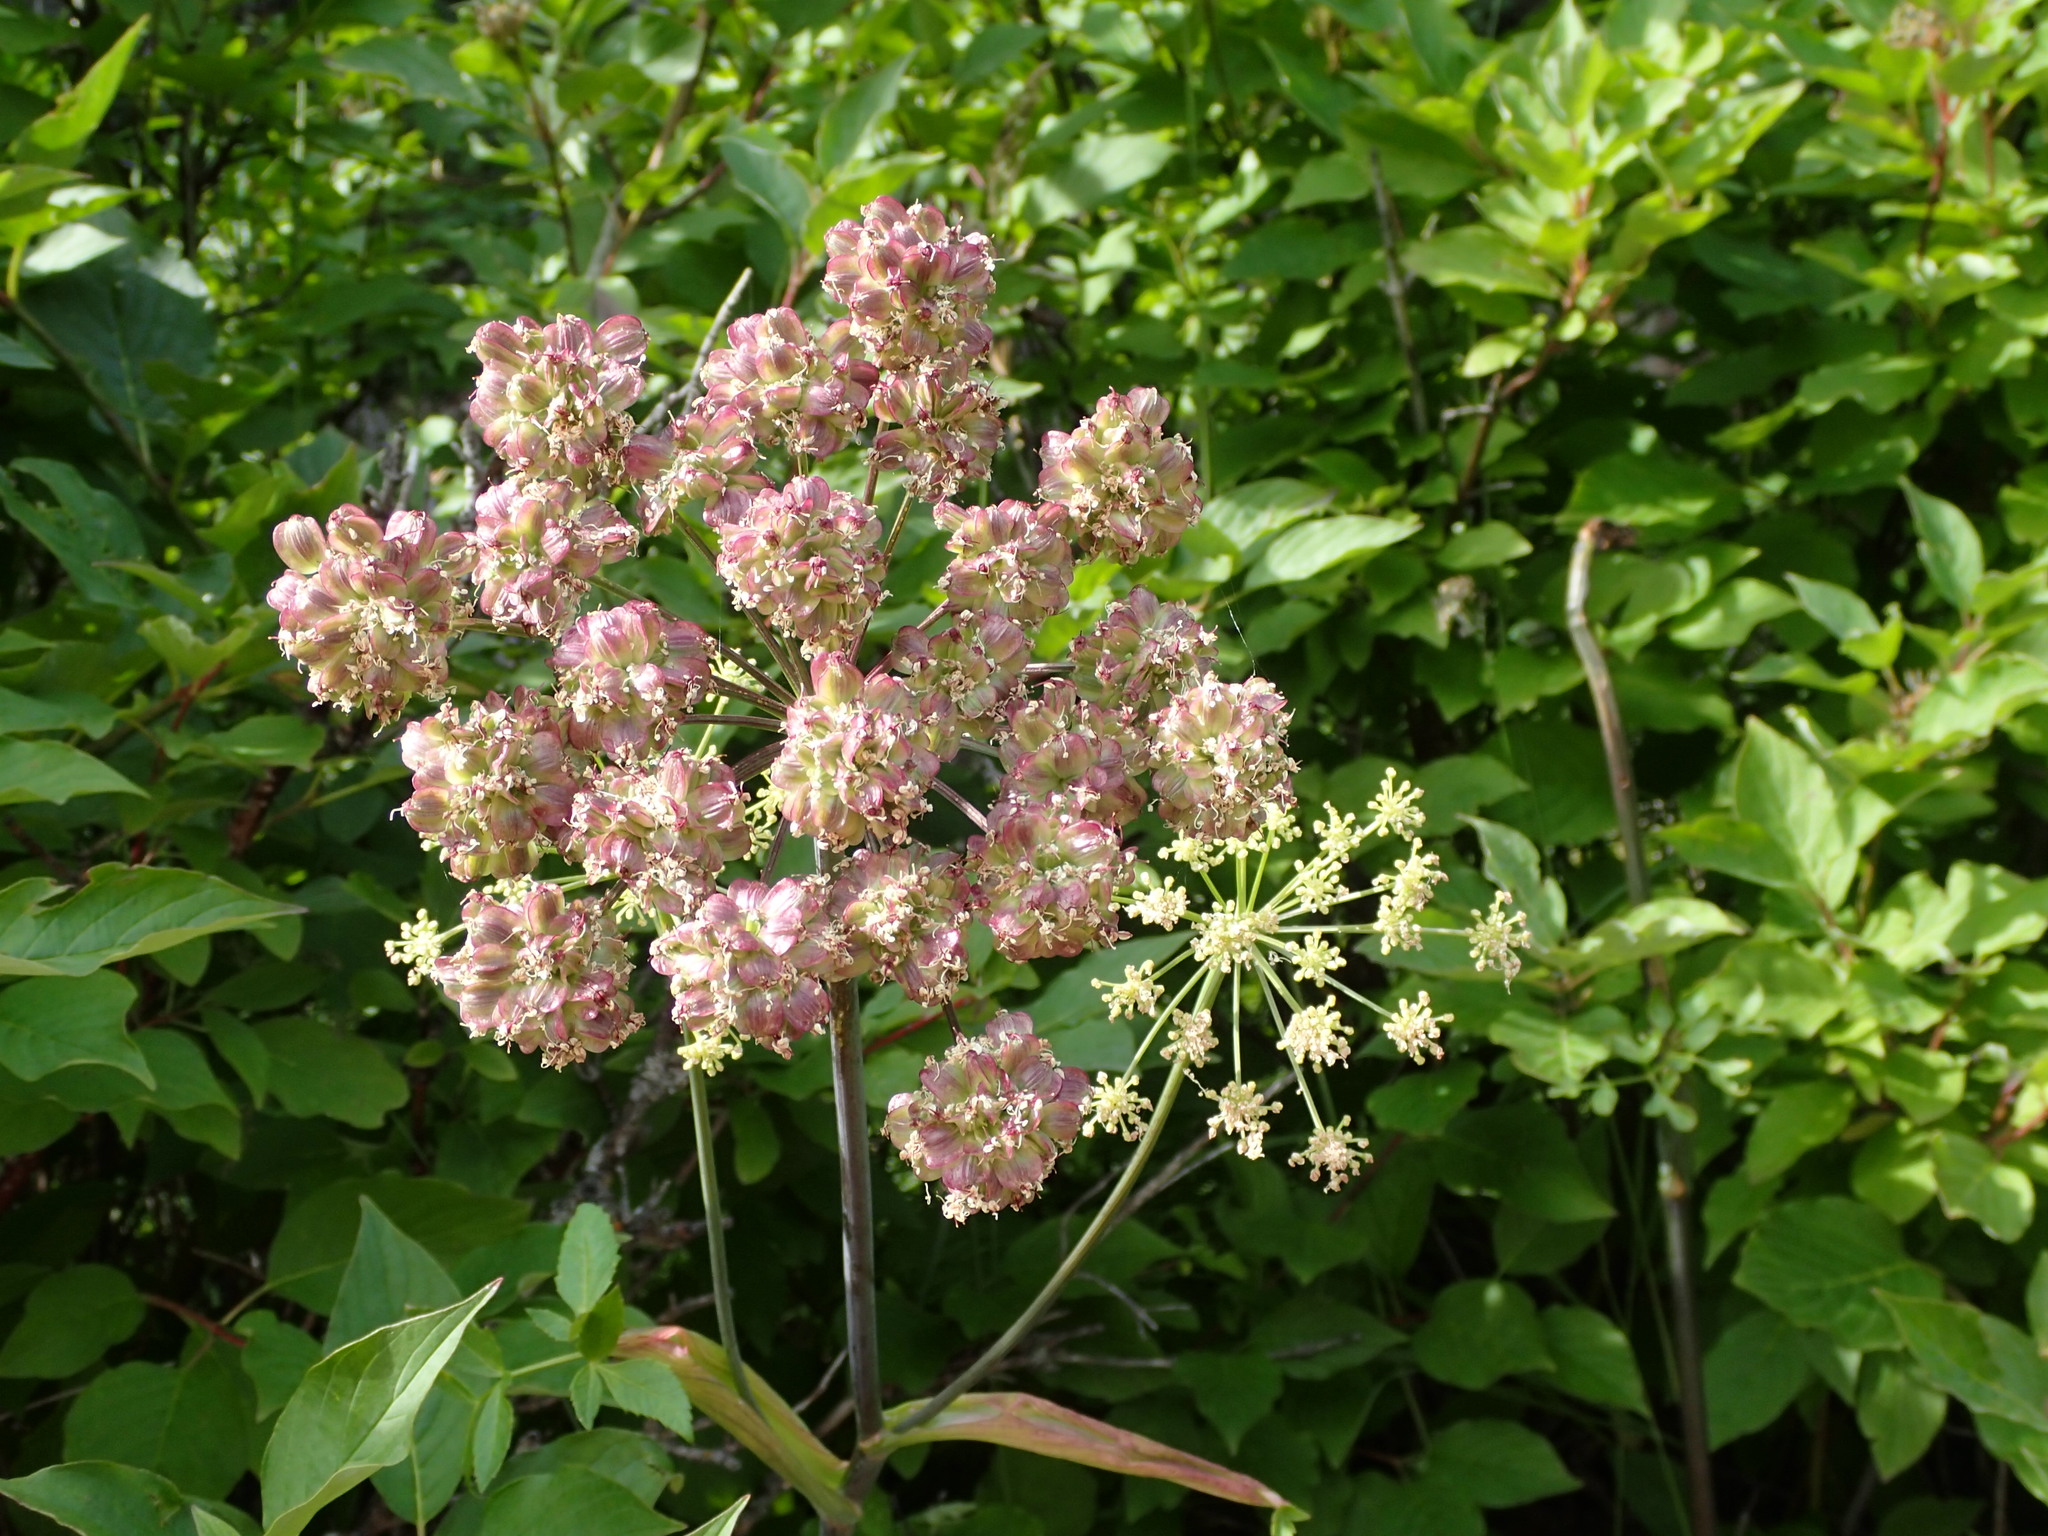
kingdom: Plantae
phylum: Tracheophyta
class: Magnoliopsida
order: Apiales
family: Apiaceae
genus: Angelica
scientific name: Angelica arguta
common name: Lyall's angelica
